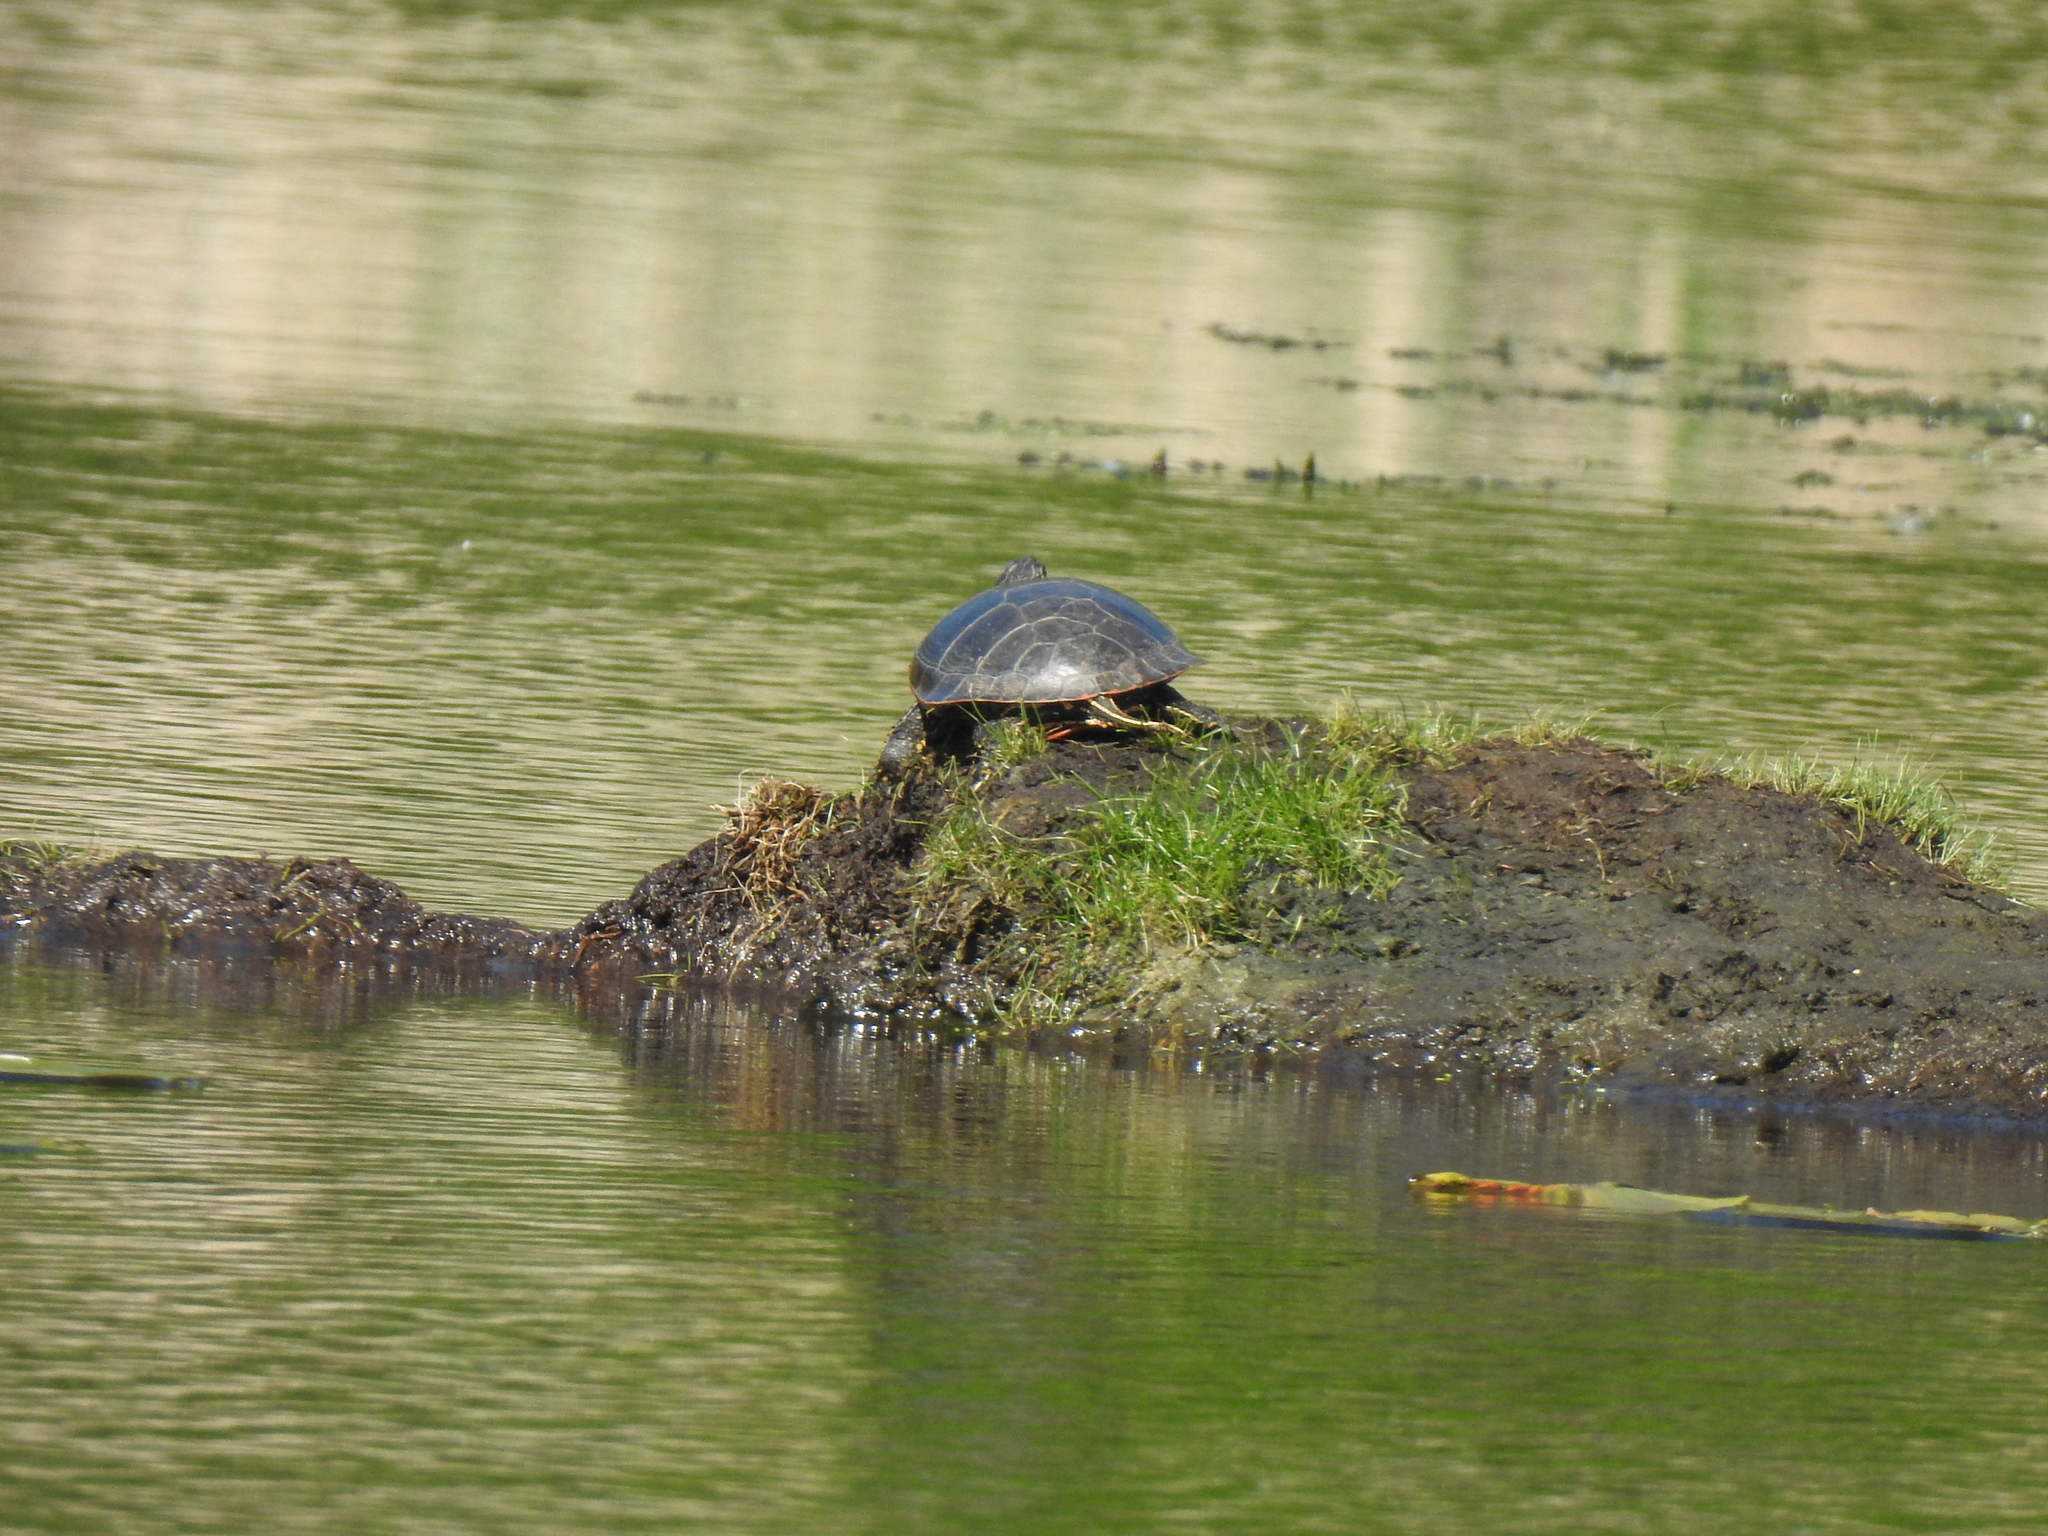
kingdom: Animalia
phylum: Chordata
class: Testudines
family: Emydidae
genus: Chrysemys
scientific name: Chrysemys picta
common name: Painted turtle
